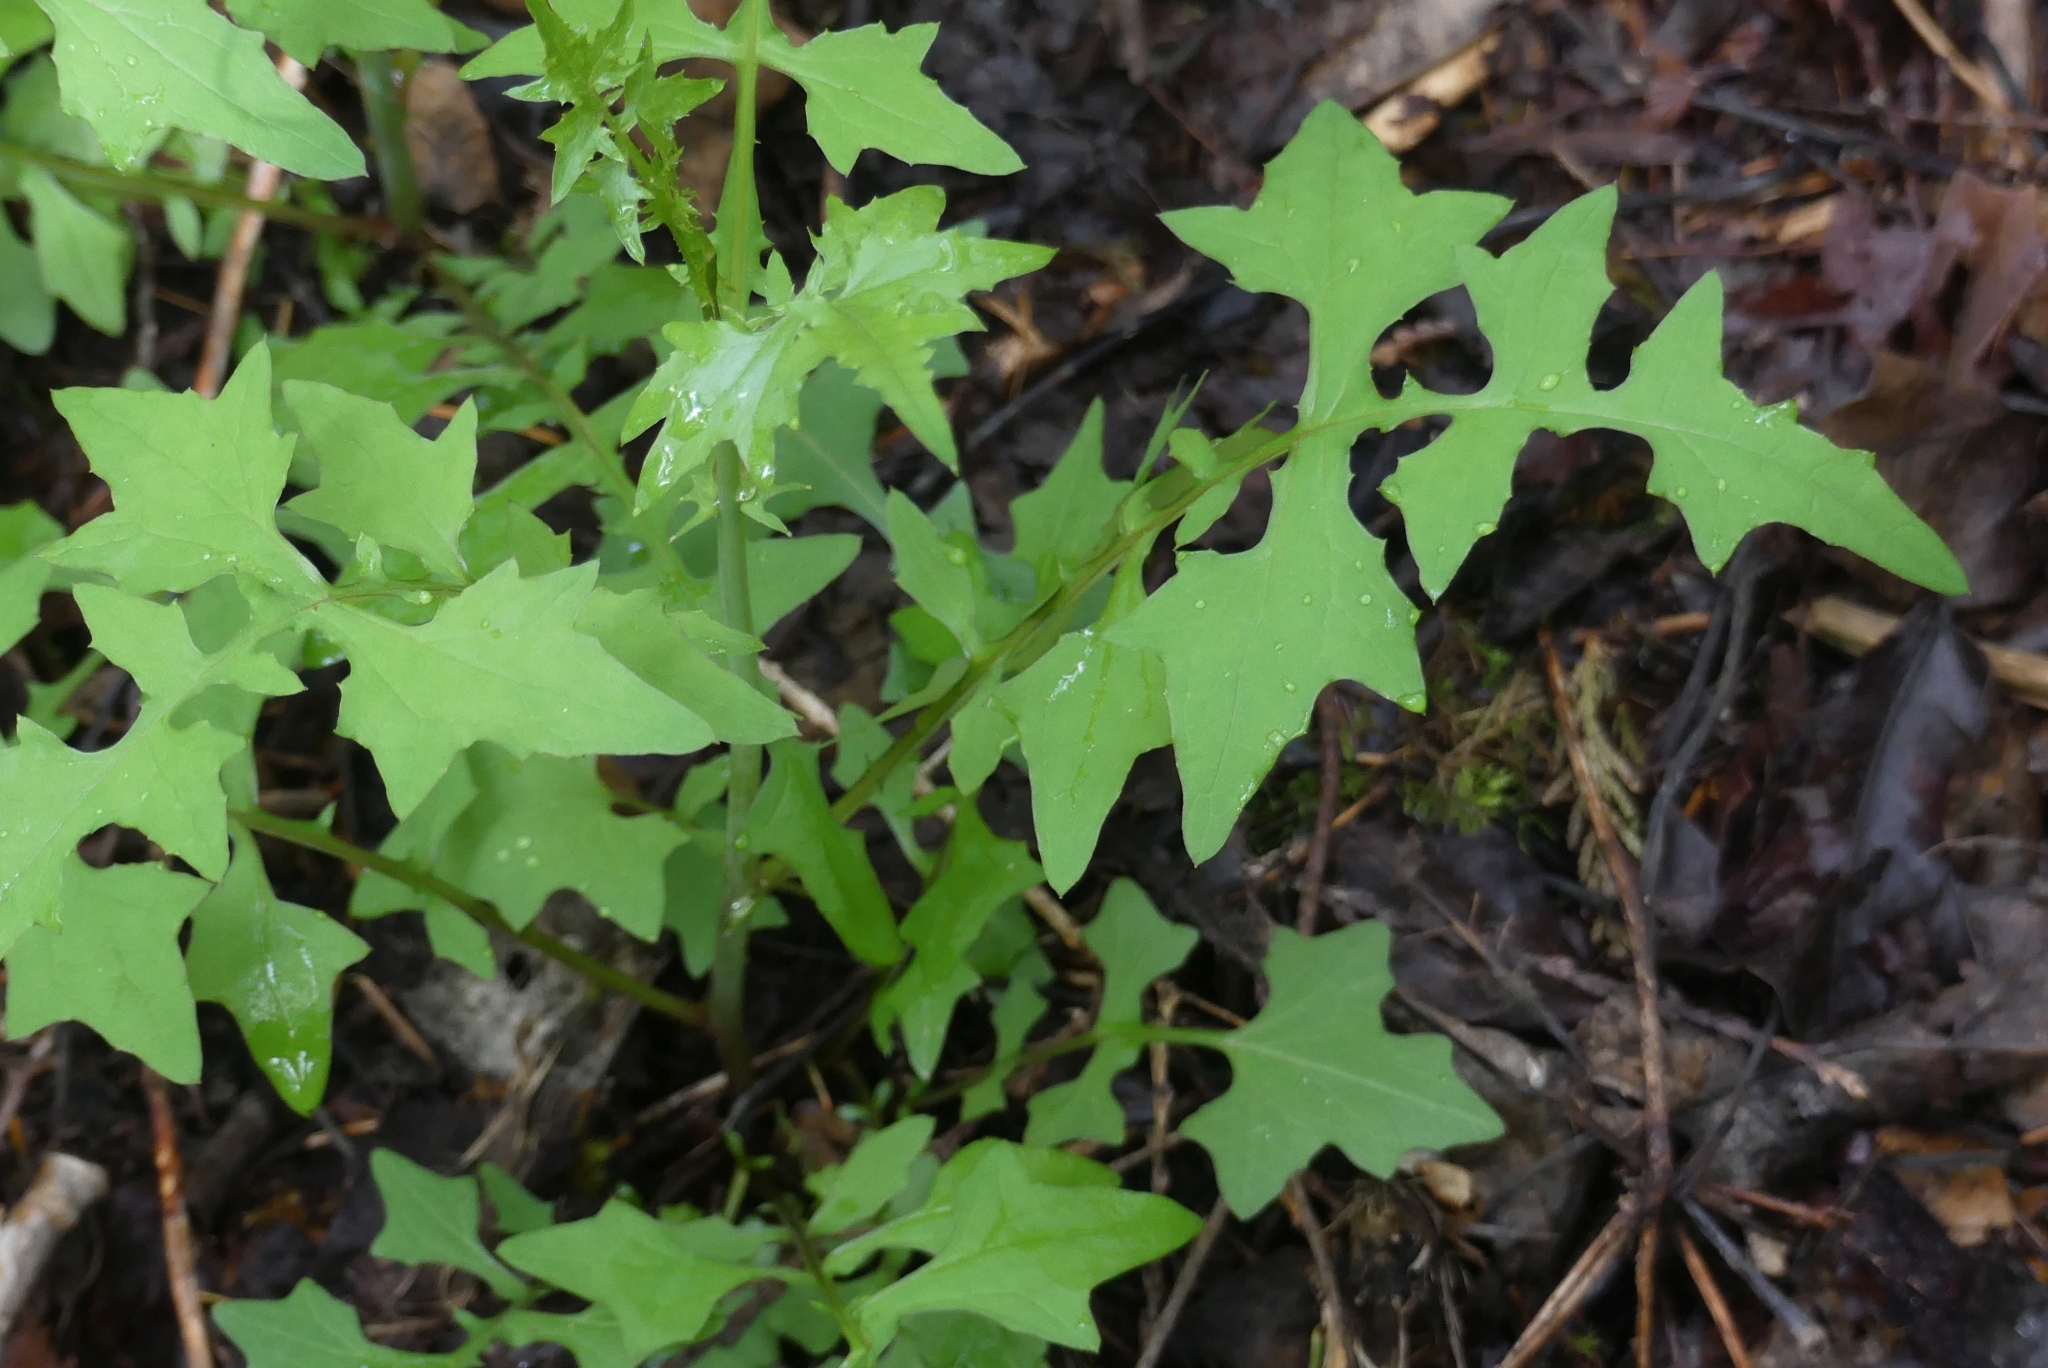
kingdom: Plantae
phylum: Tracheophyta
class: Magnoliopsida
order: Asterales
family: Asteraceae
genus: Mycelis
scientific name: Mycelis muralis
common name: Wall lettuce
